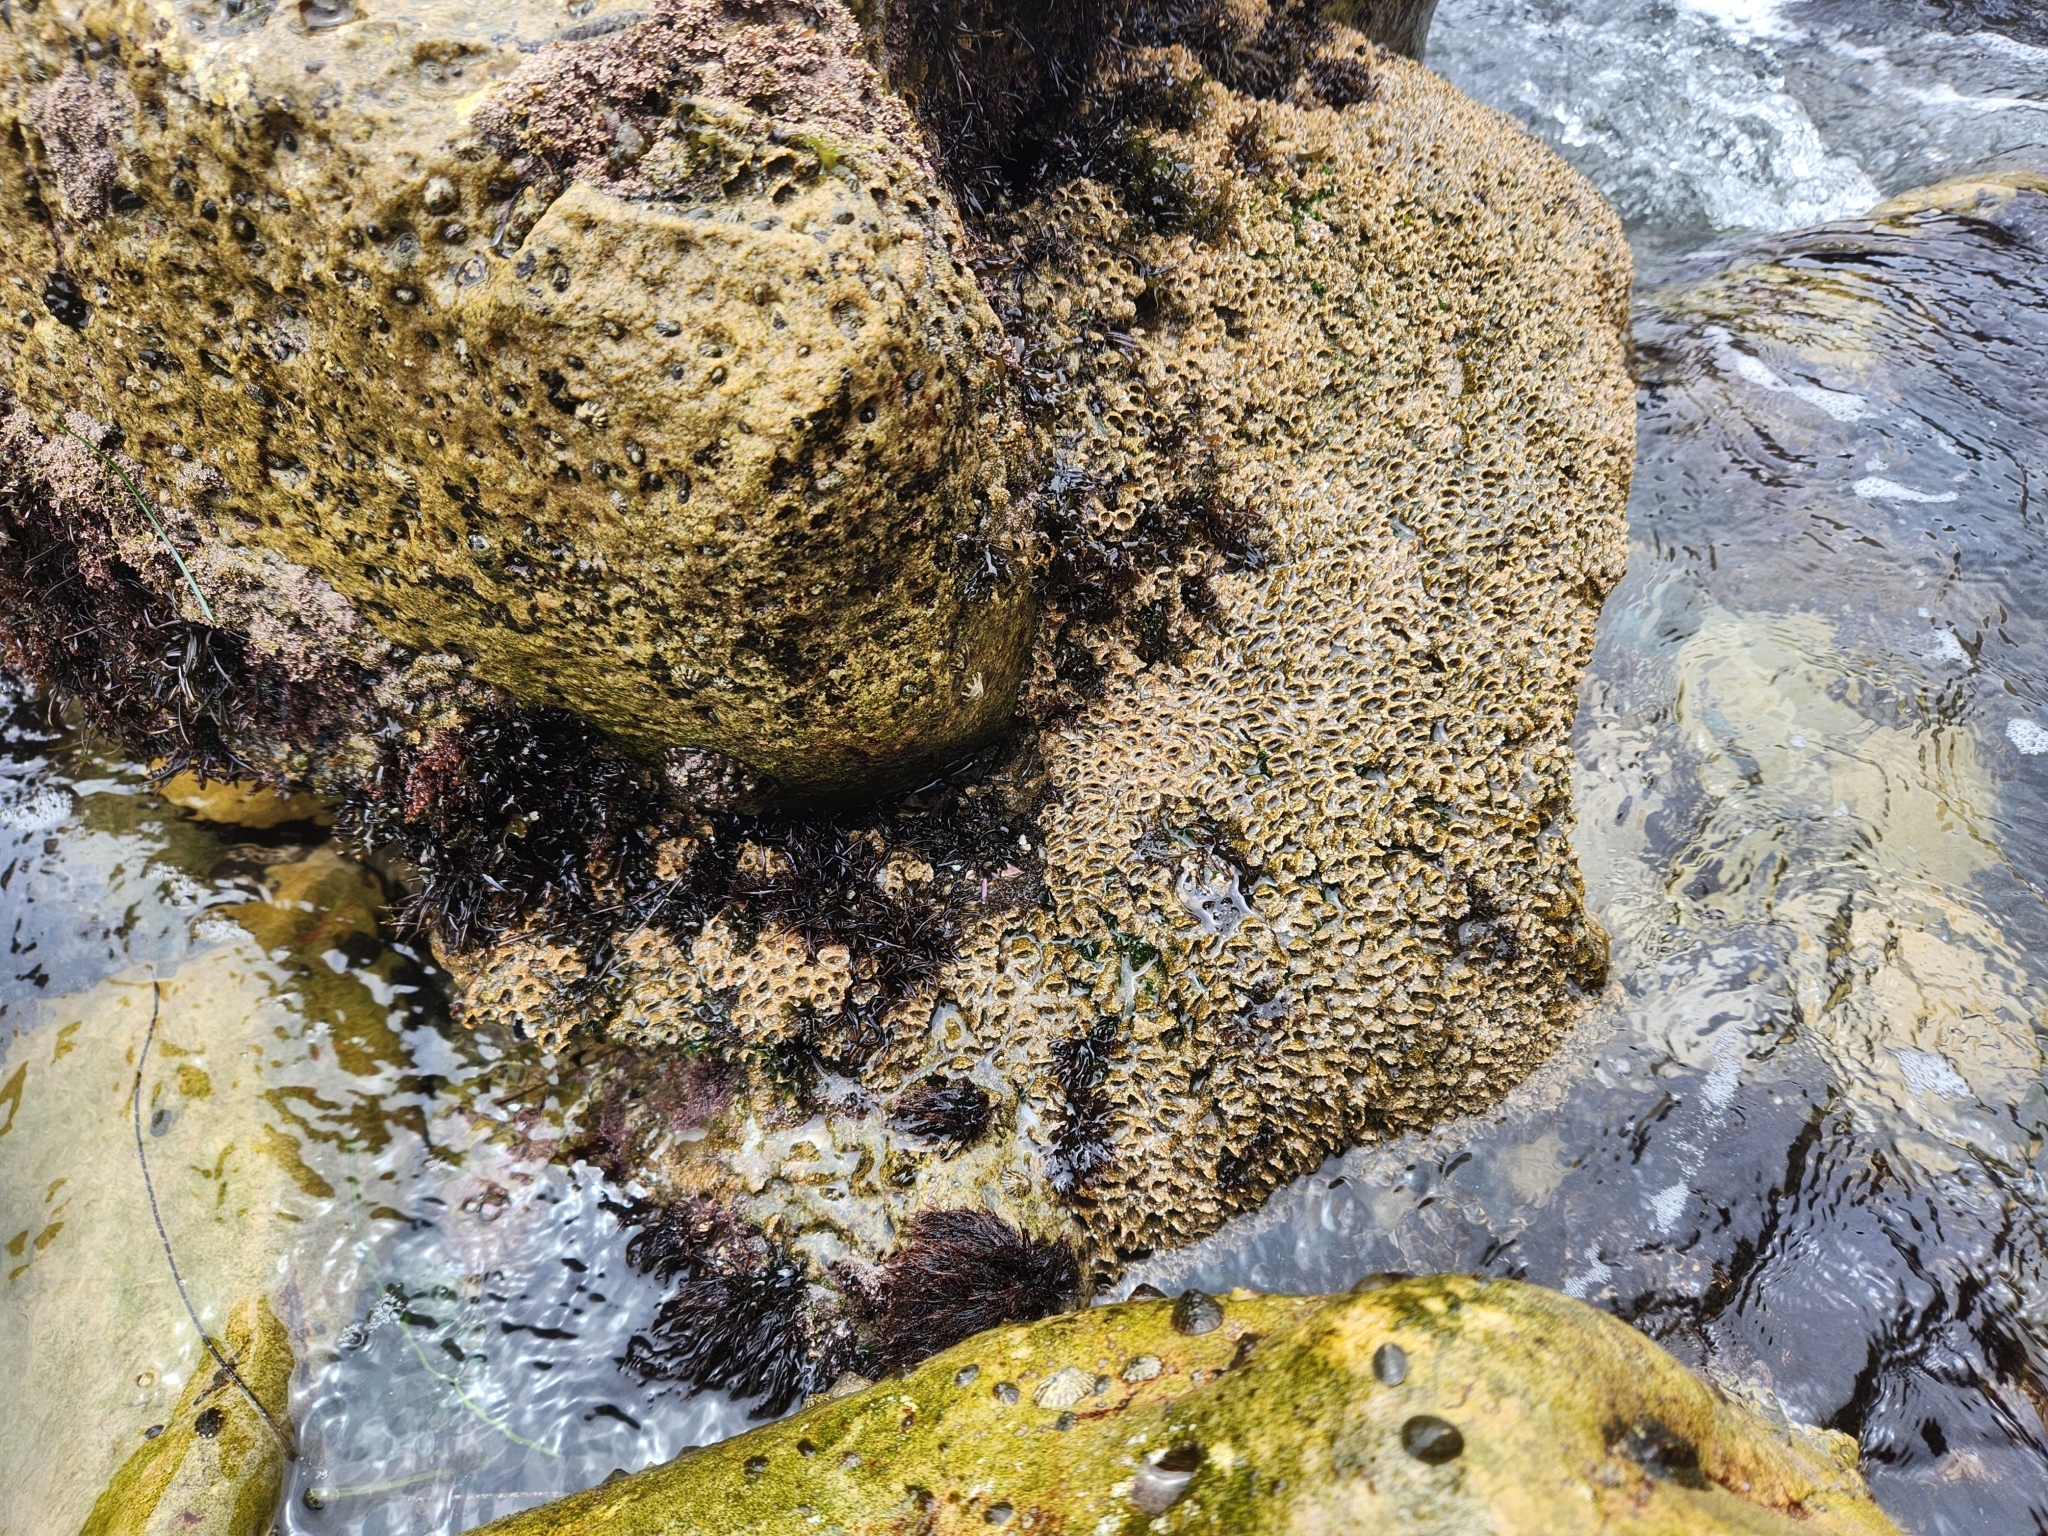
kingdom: Animalia
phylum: Annelida
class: Polychaeta
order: Sabellida
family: Sabellariidae
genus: Phragmatopoma
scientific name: Phragmatopoma californica
